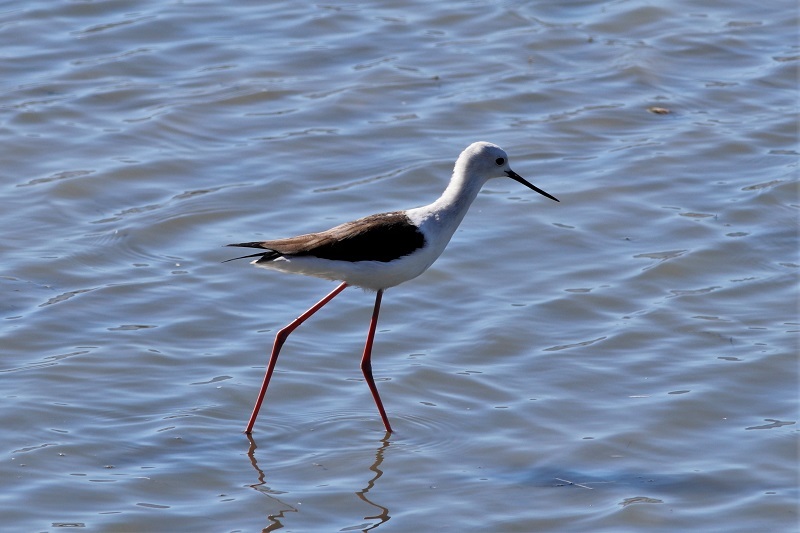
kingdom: Animalia
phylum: Chordata
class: Aves
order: Charadriiformes
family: Recurvirostridae
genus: Himantopus
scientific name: Himantopus himantopus
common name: Black-winged stilt
